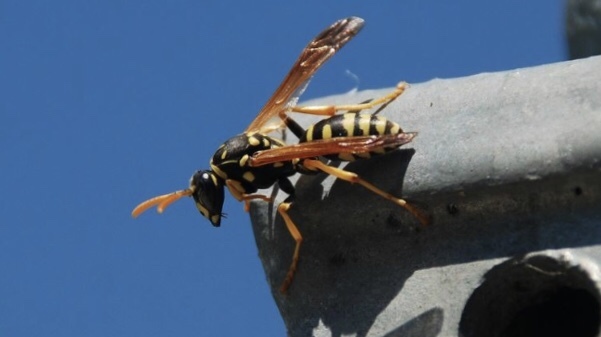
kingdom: Animalia
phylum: Arthropoda
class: Insecta
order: Hymenoptera
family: Eumenidae
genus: Polistes
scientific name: Polistes gallicus
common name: Paper wasp
